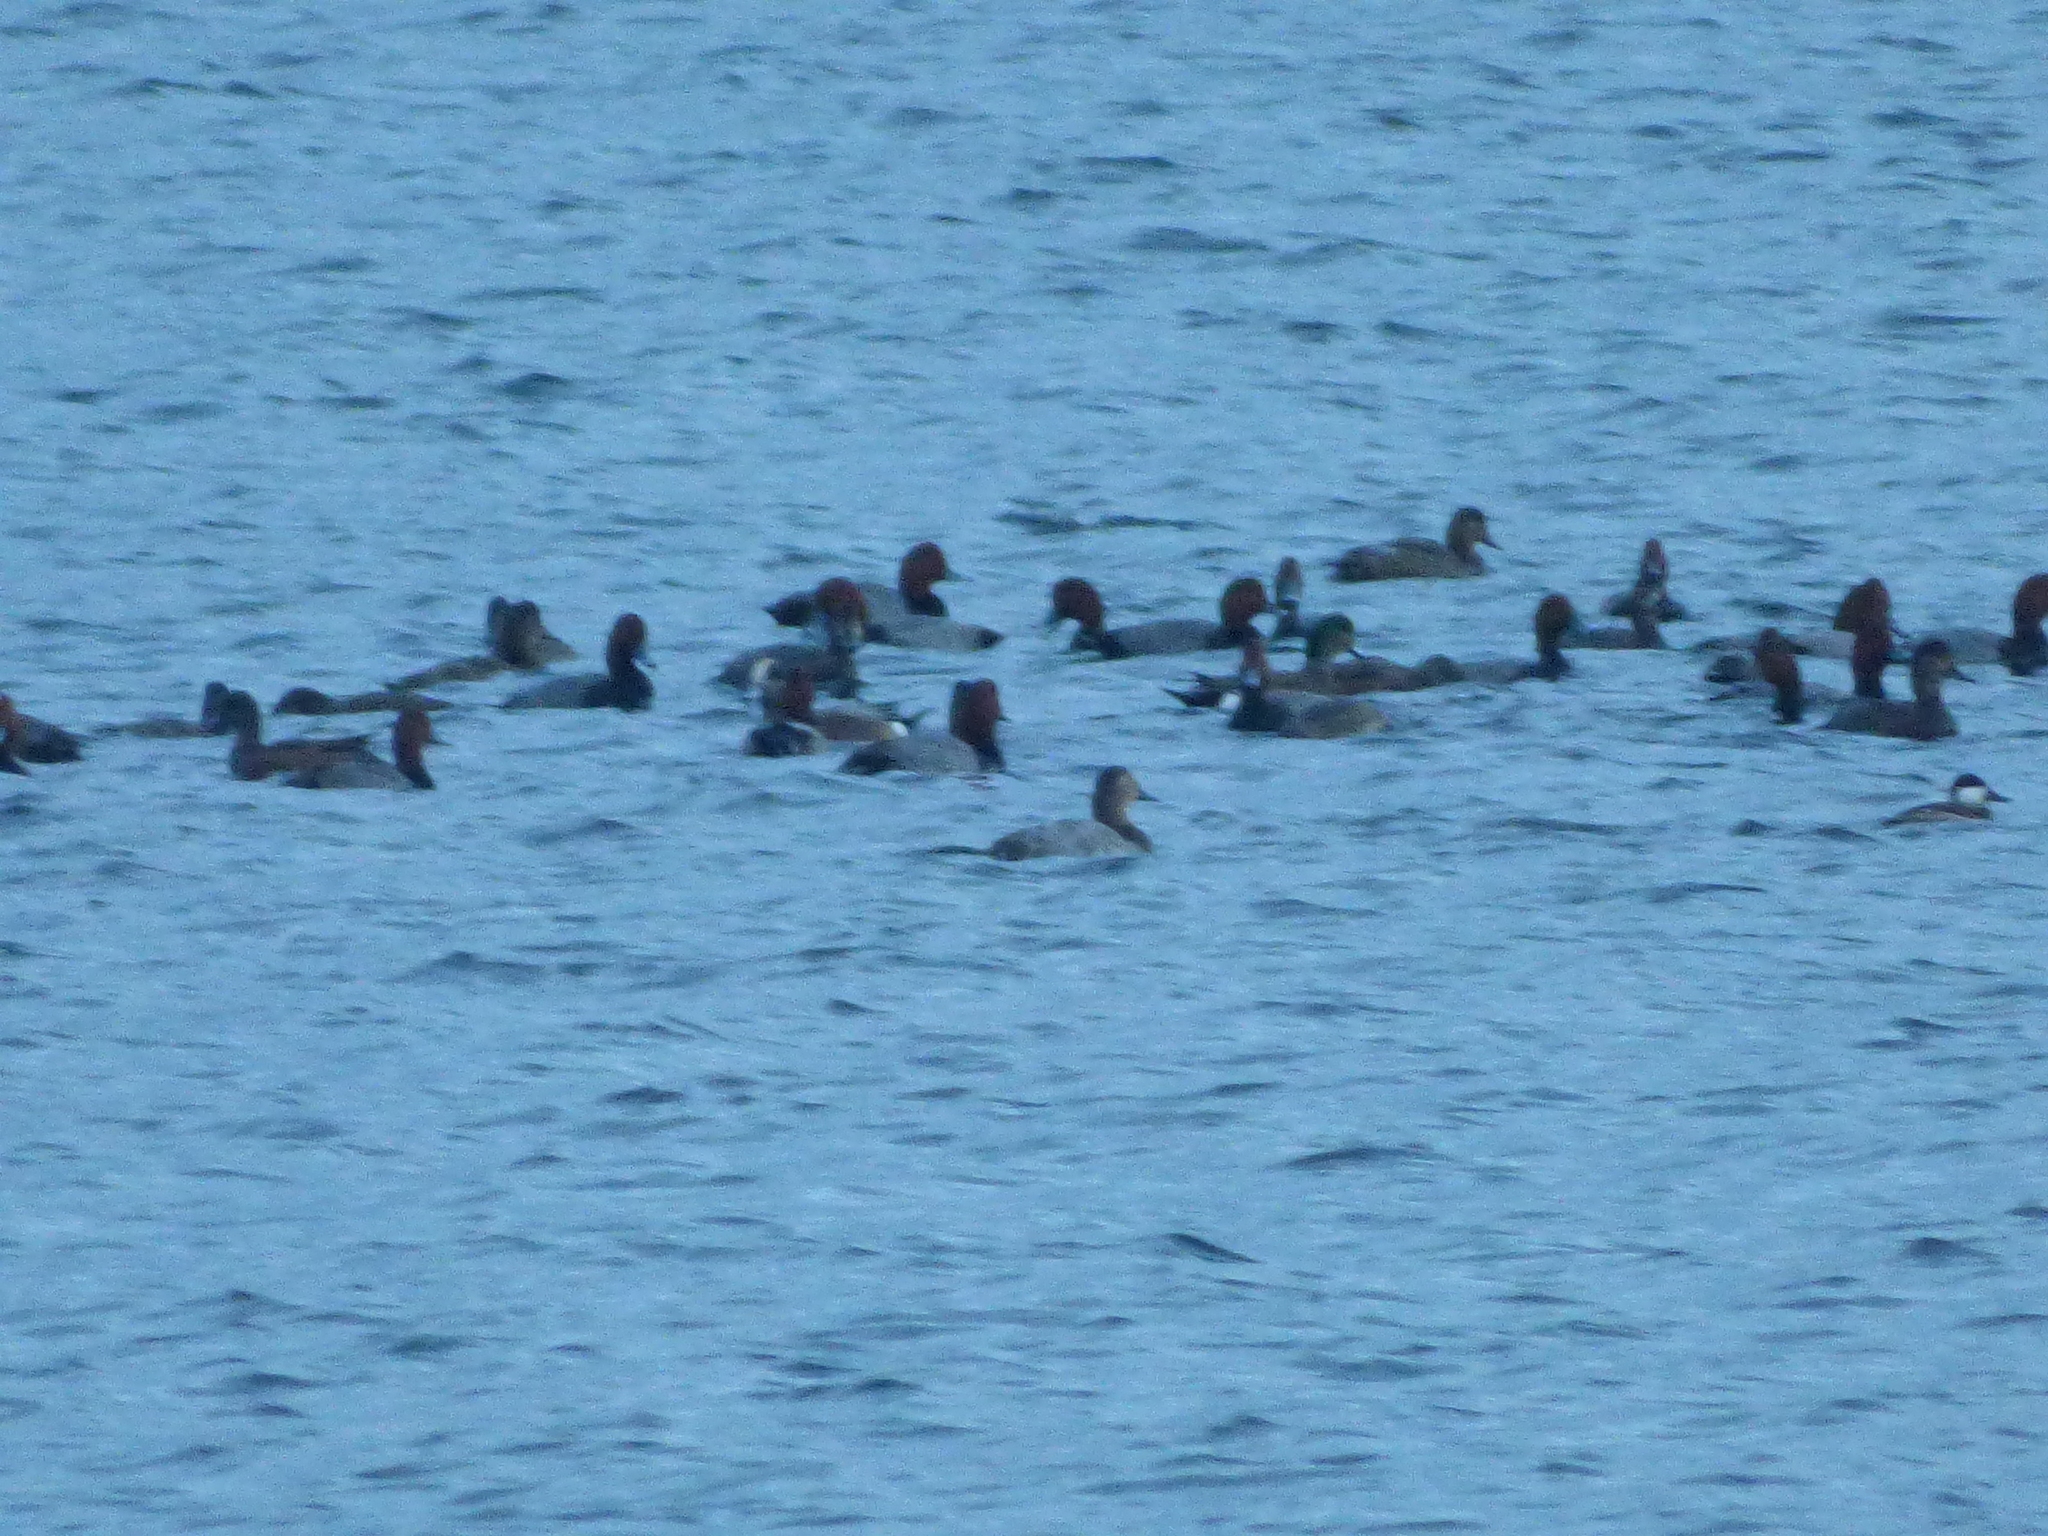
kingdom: Animalia
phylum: Chordata
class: Aves
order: Anseriformes
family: Anatidae
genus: Aythya
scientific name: Aythya valisineria
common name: Canvasback
